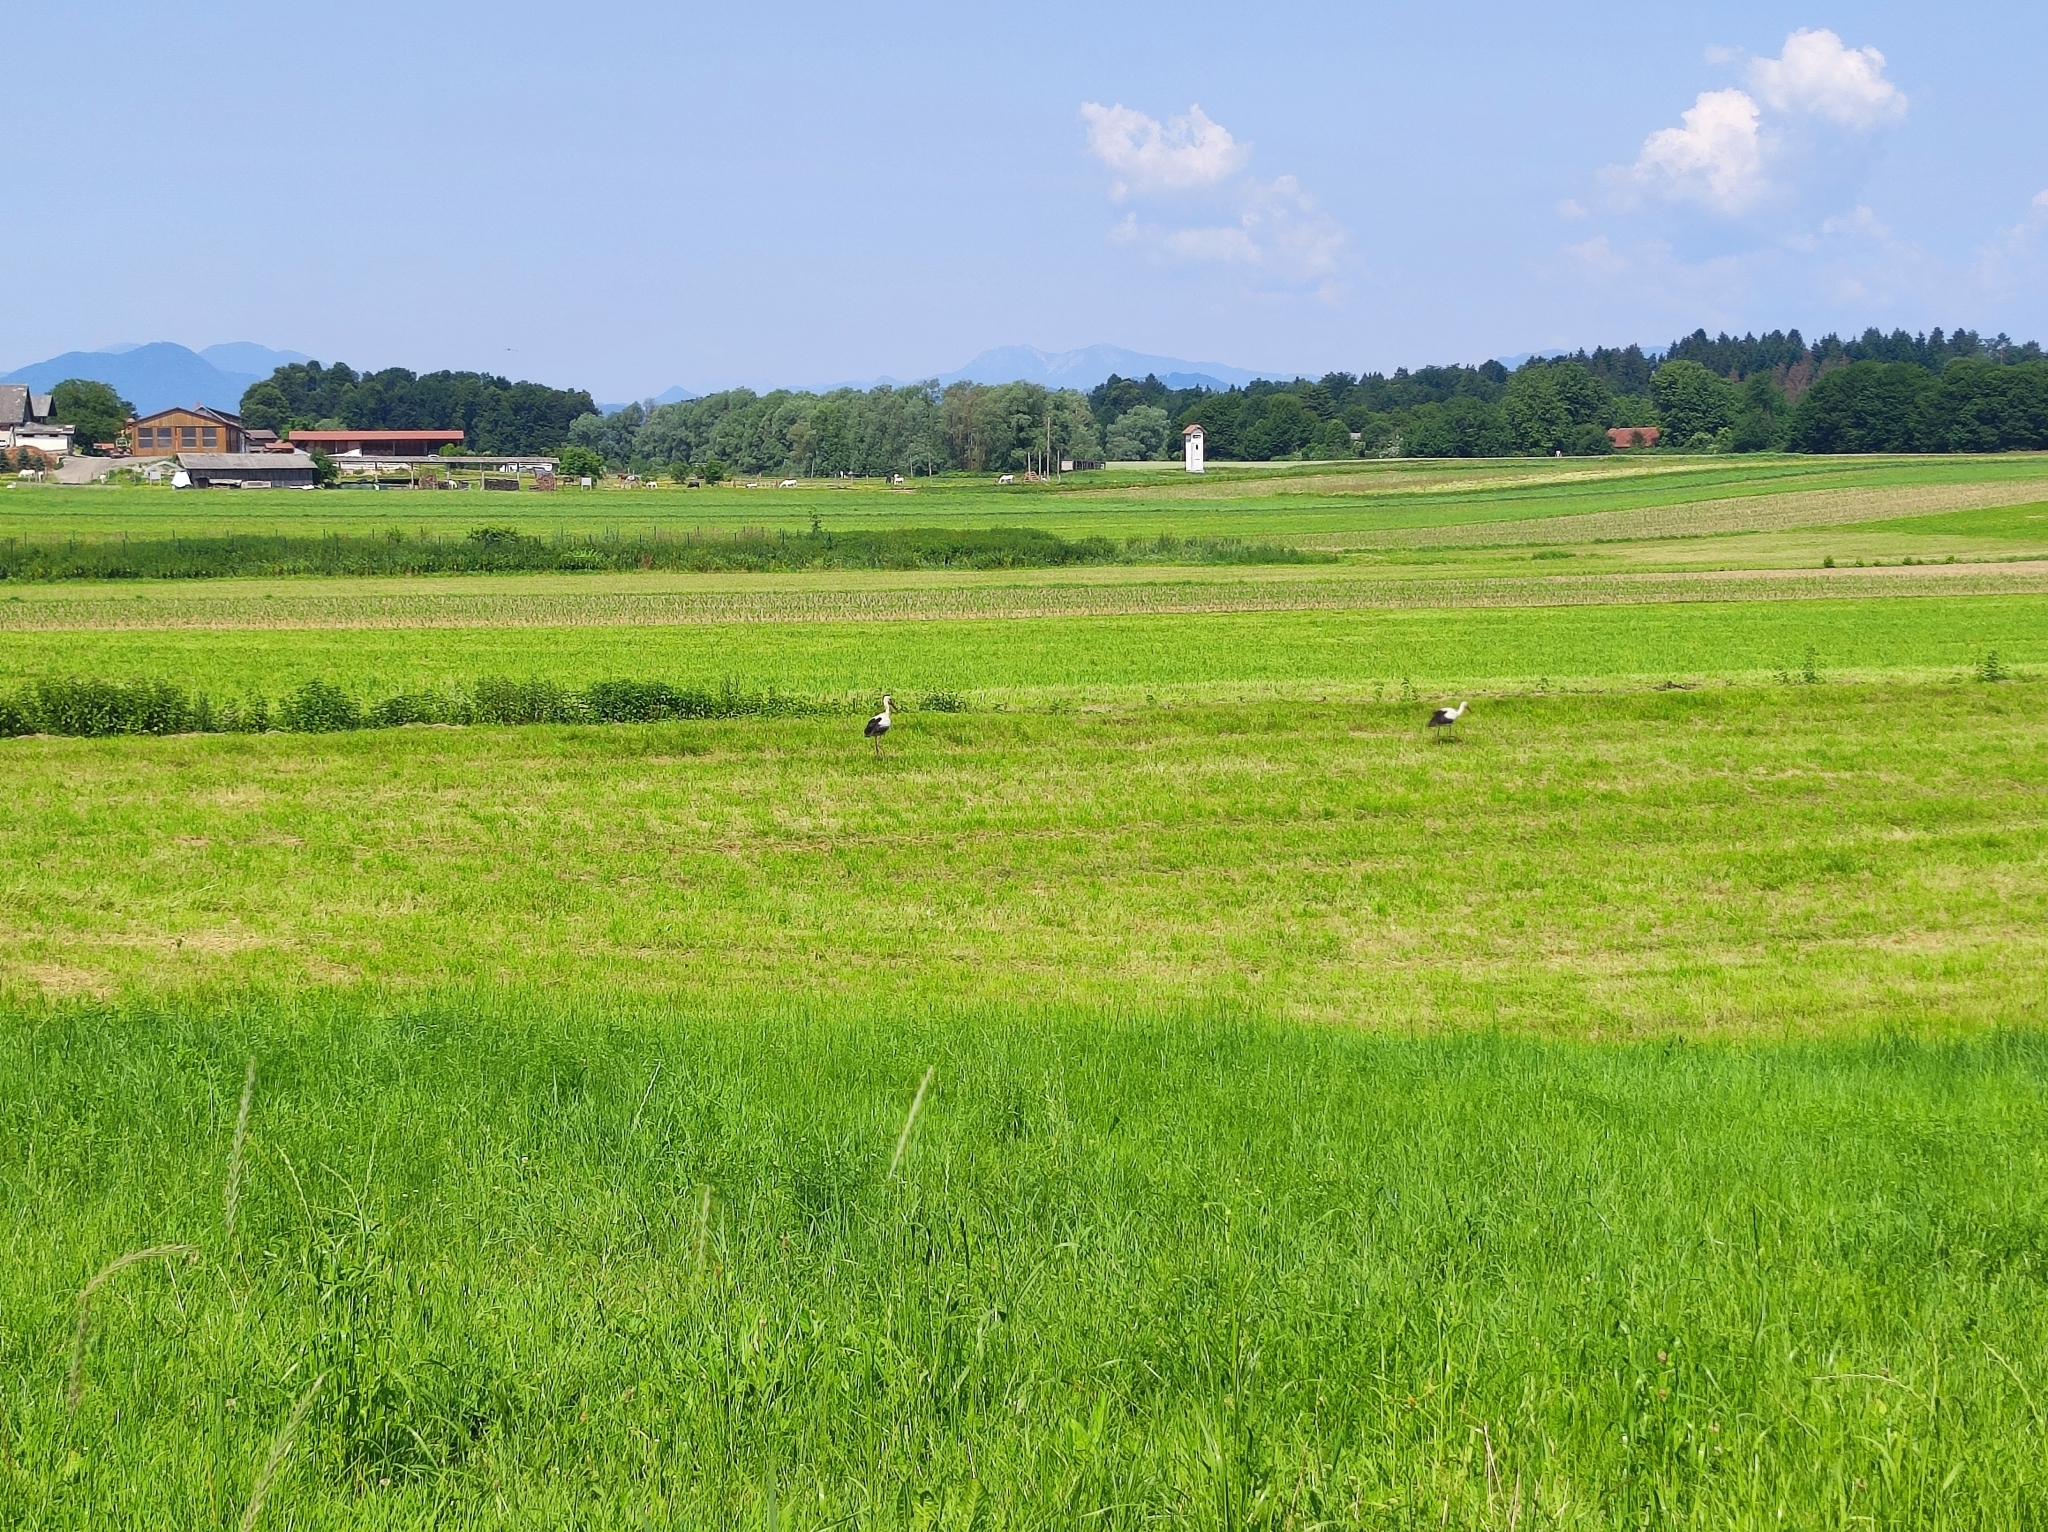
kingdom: Animalia
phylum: Chordata
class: Aves
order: Ciconiiformes
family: Ciconiidae
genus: Ciconia
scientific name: Ciconia ciconia
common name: White stork
